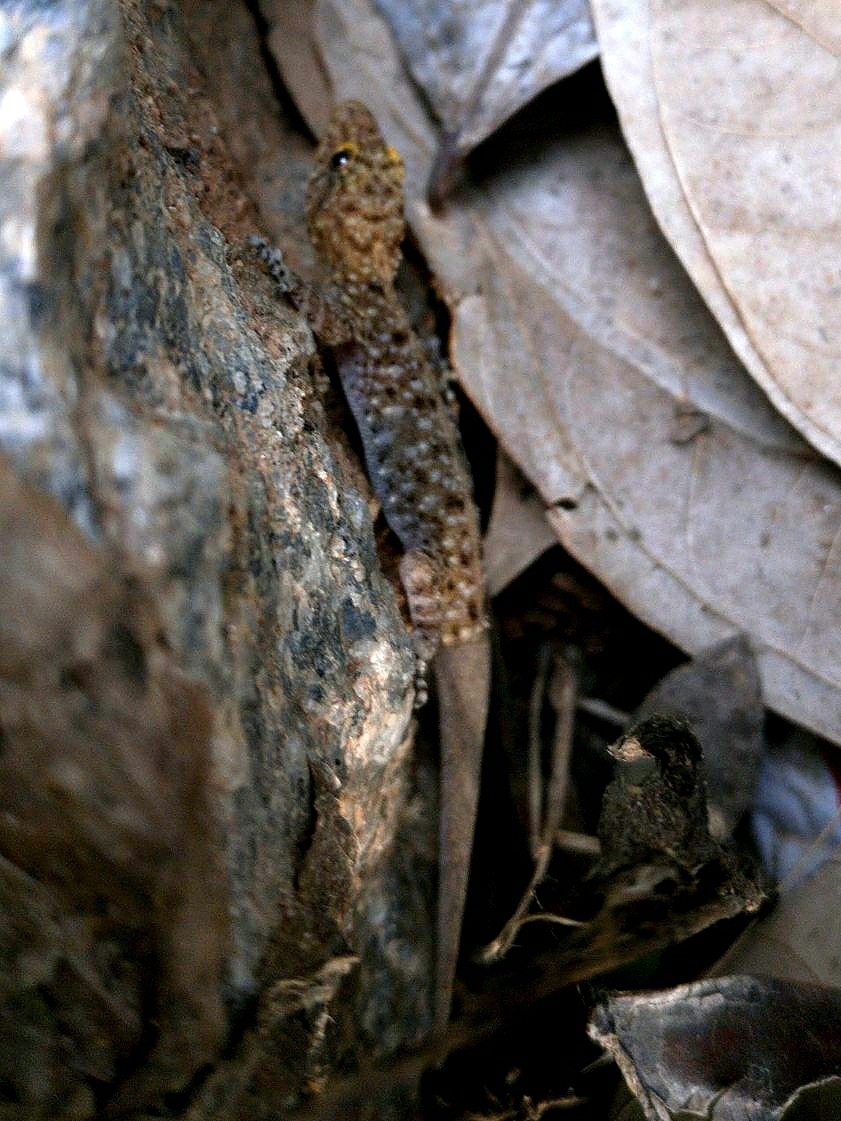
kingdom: Animalia
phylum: Chordata
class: Squamata
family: Gekkonidae
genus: Cnemaspis
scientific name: Cnemaspis mysoriensis
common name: Mysore day gecko
